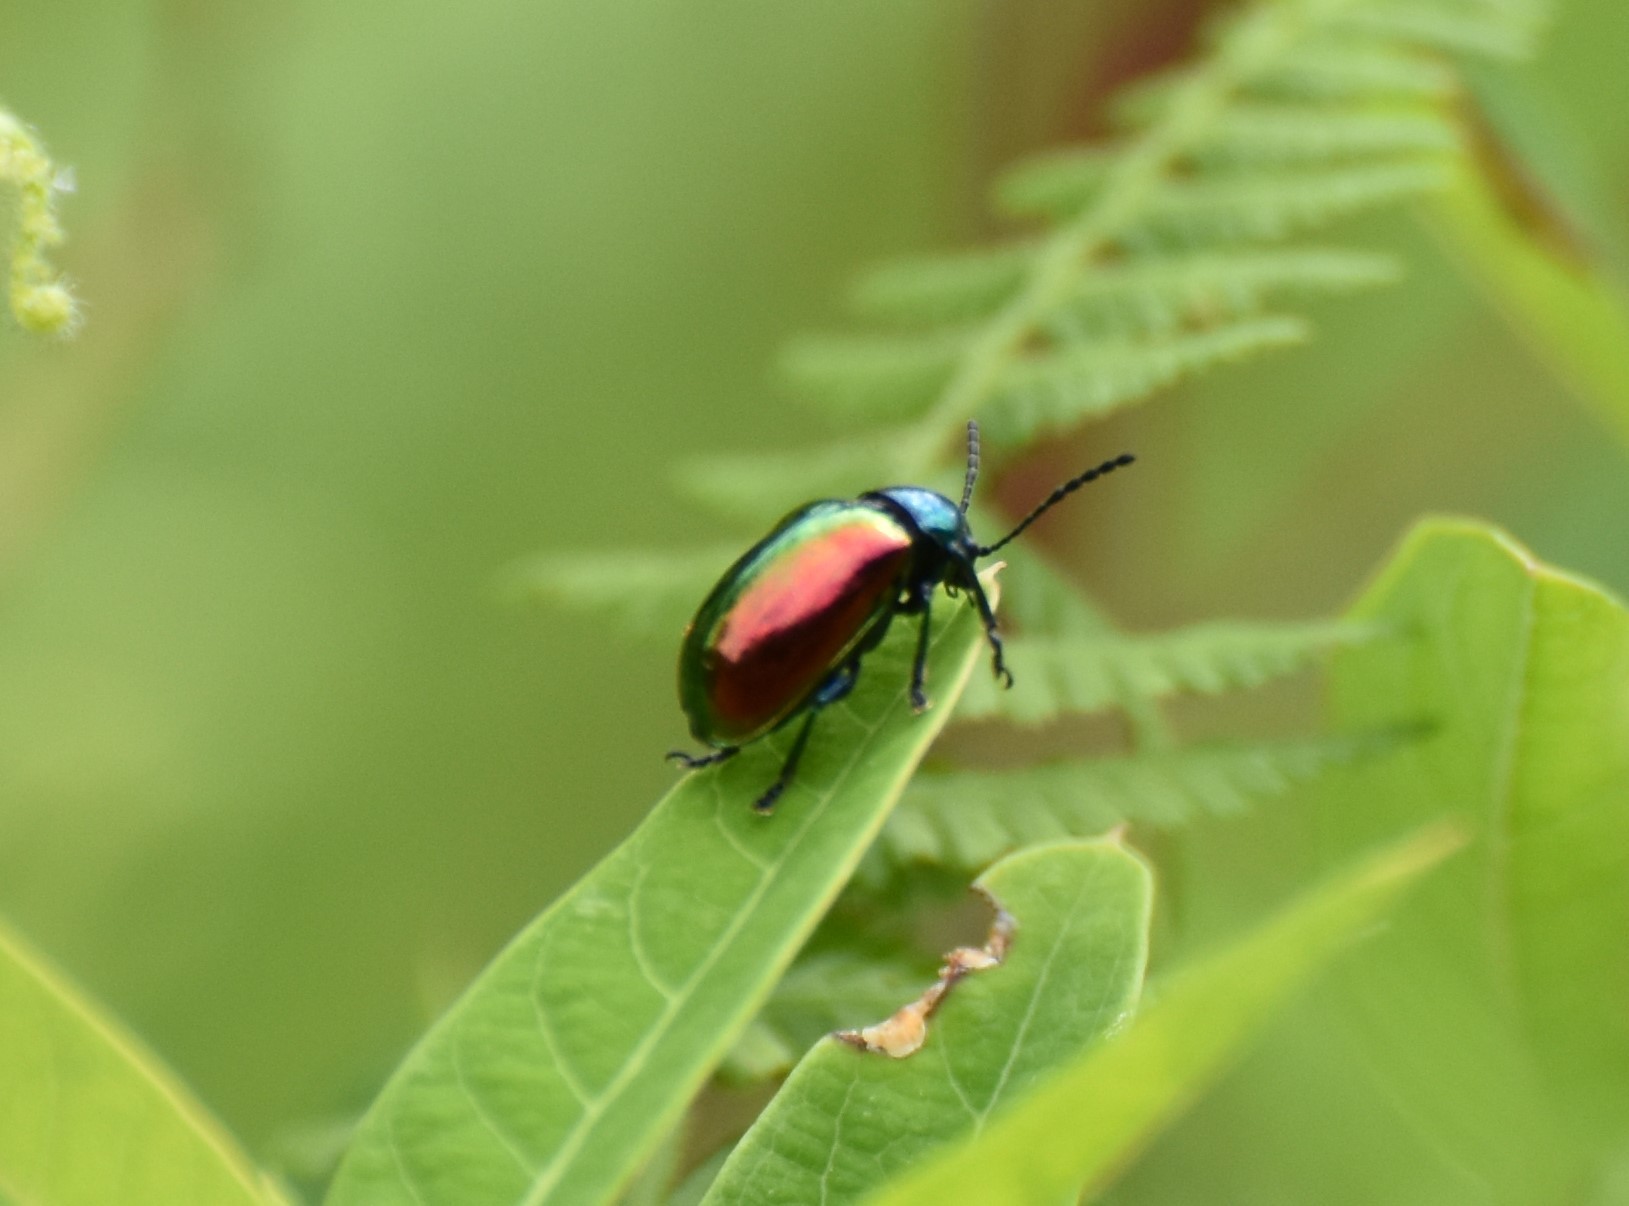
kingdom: Animalia
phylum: Arthropoda
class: Insecta
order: Coleoptera
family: Chrysomelidae
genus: Chrysochus
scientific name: Chrysochus auratus
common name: Dogbane leaf beetle
